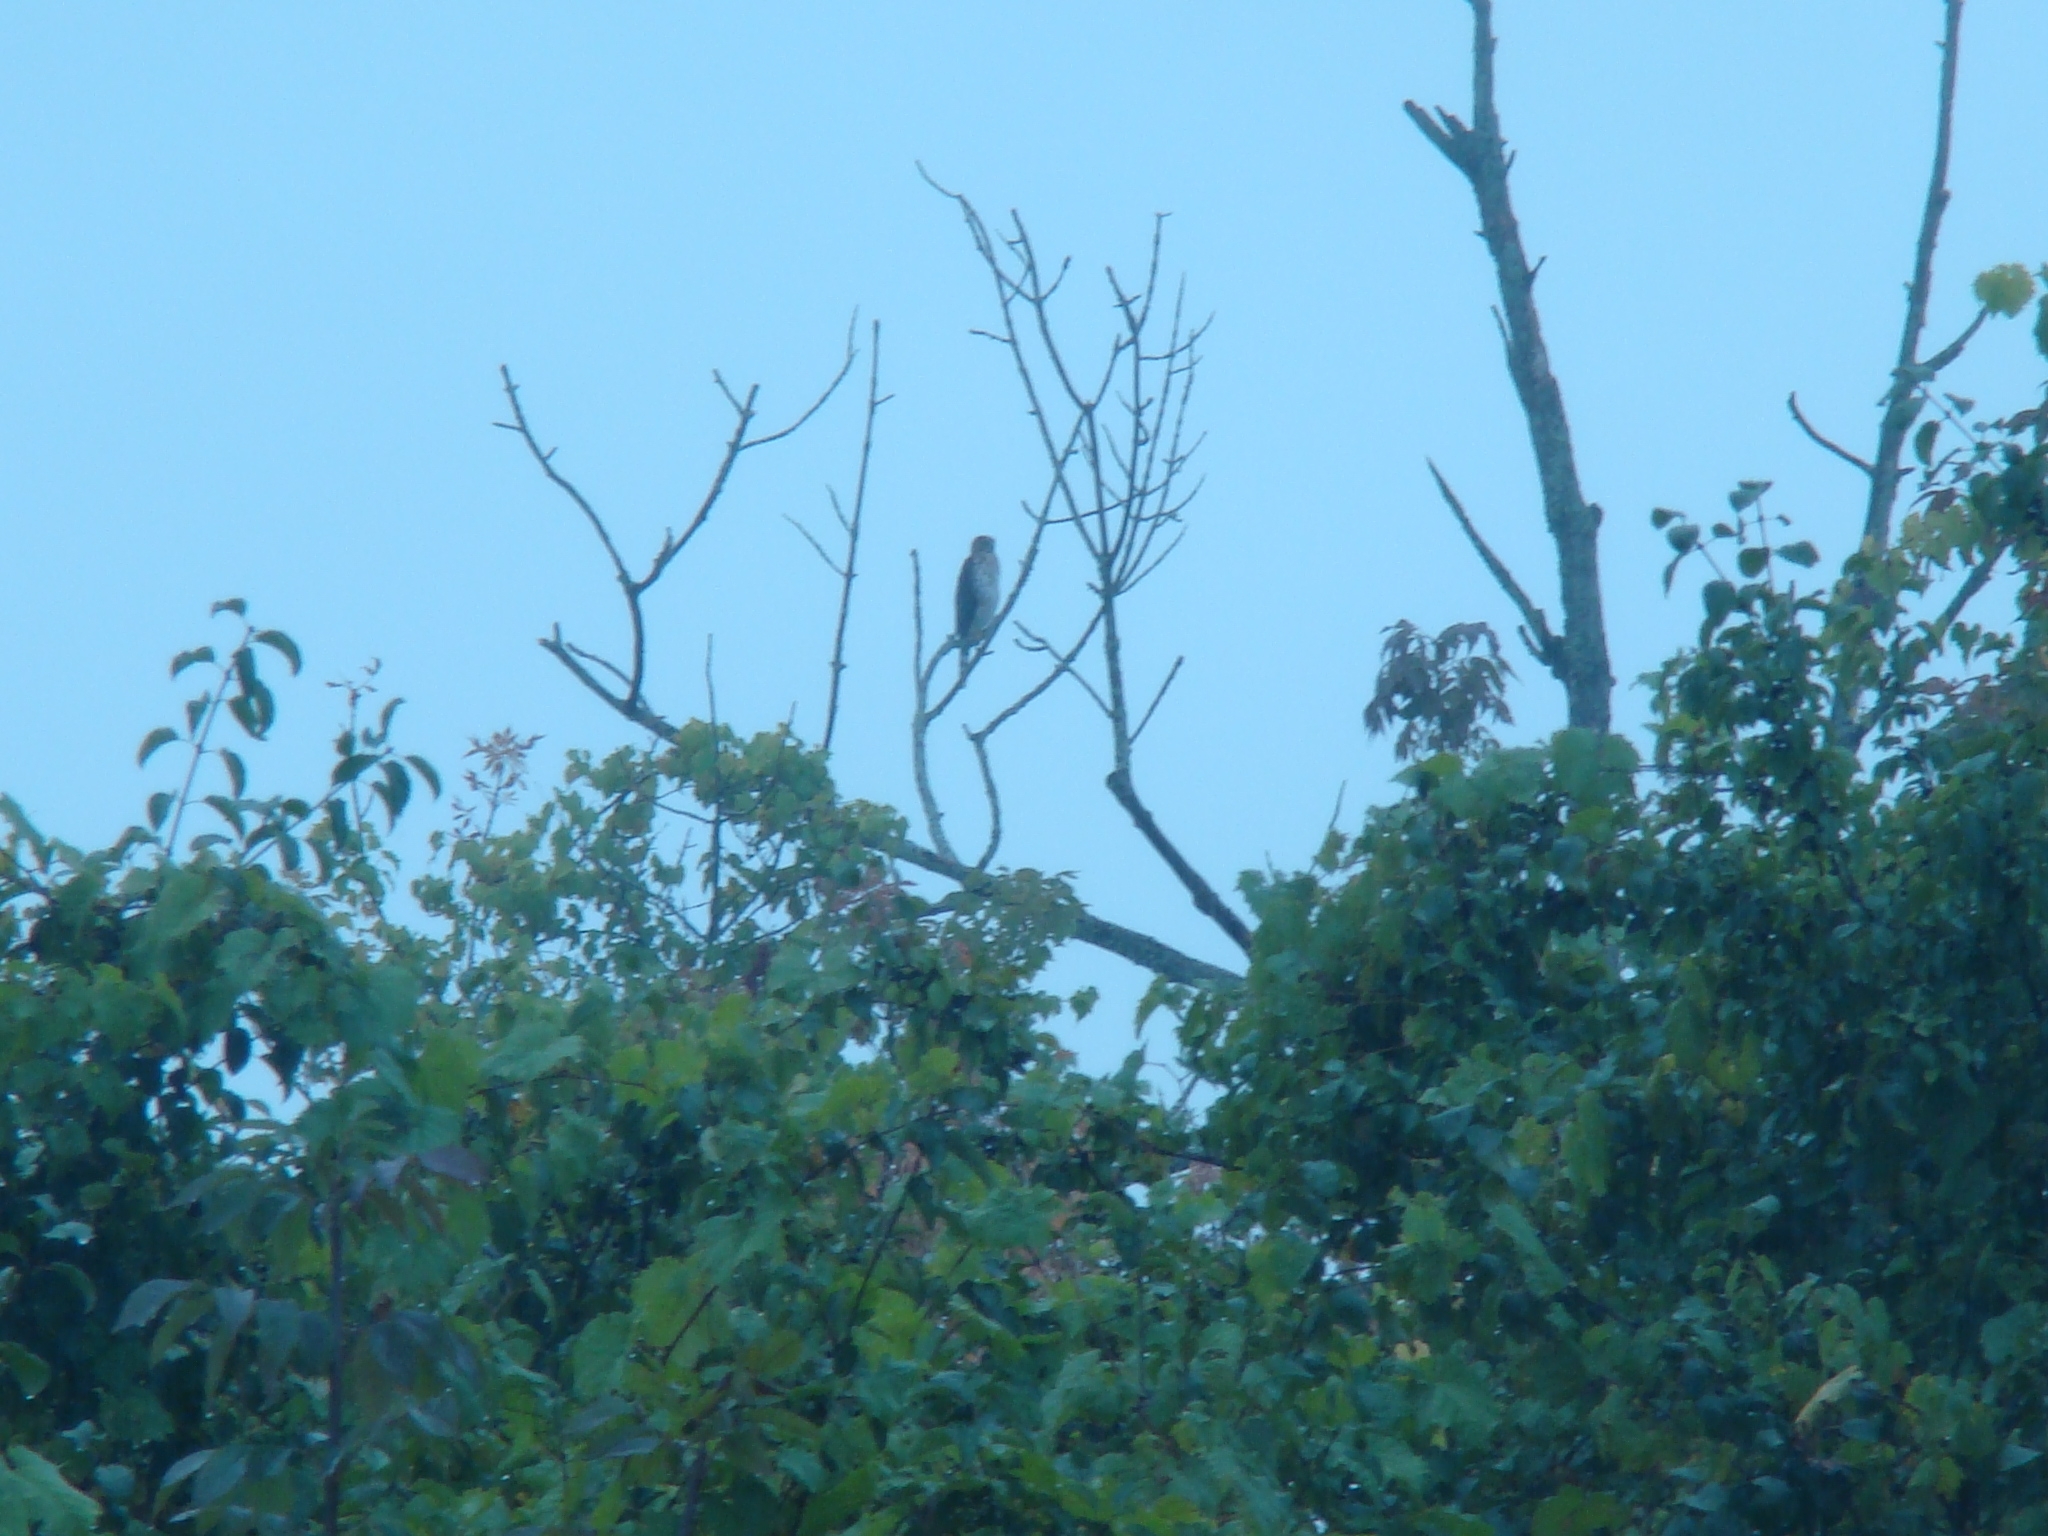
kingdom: Animalia
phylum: Chordata
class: Aves
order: Accipitriformes
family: Accipitridae
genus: Accipiter
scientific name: Accipiter cooperii
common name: Cooper's hawk
